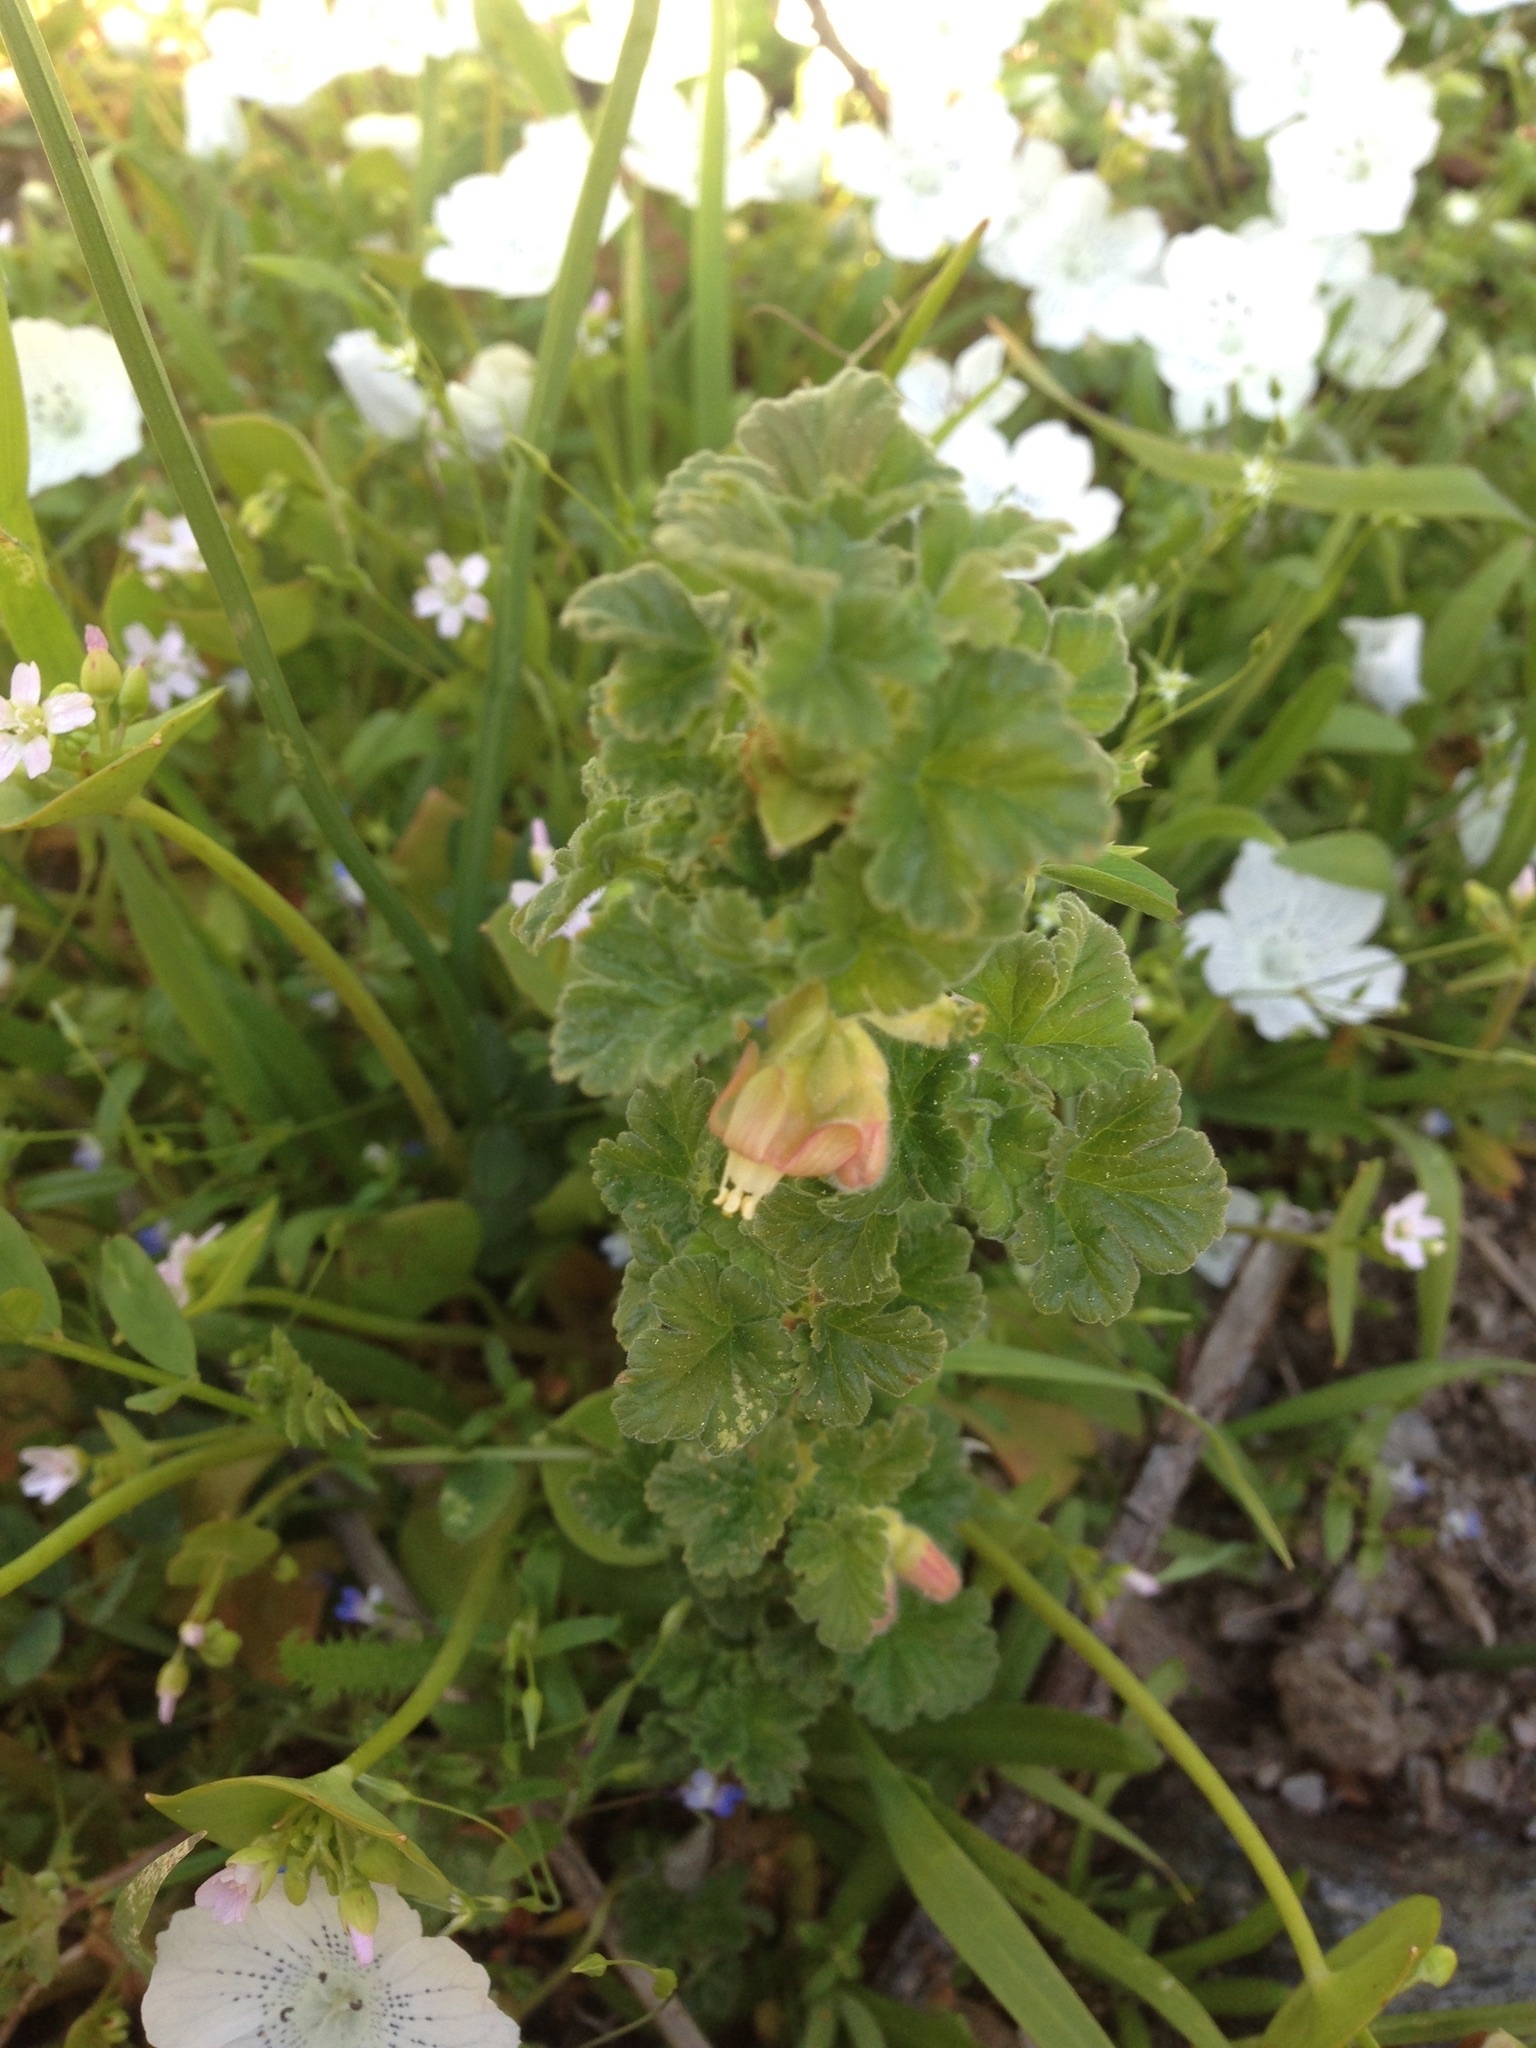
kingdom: Plantae
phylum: Tracheophyta
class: Magnoliopsida
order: Saxifragales
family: Grossulariaceae
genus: Ribes
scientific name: Ribes viscosissimum
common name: Sticky currant
